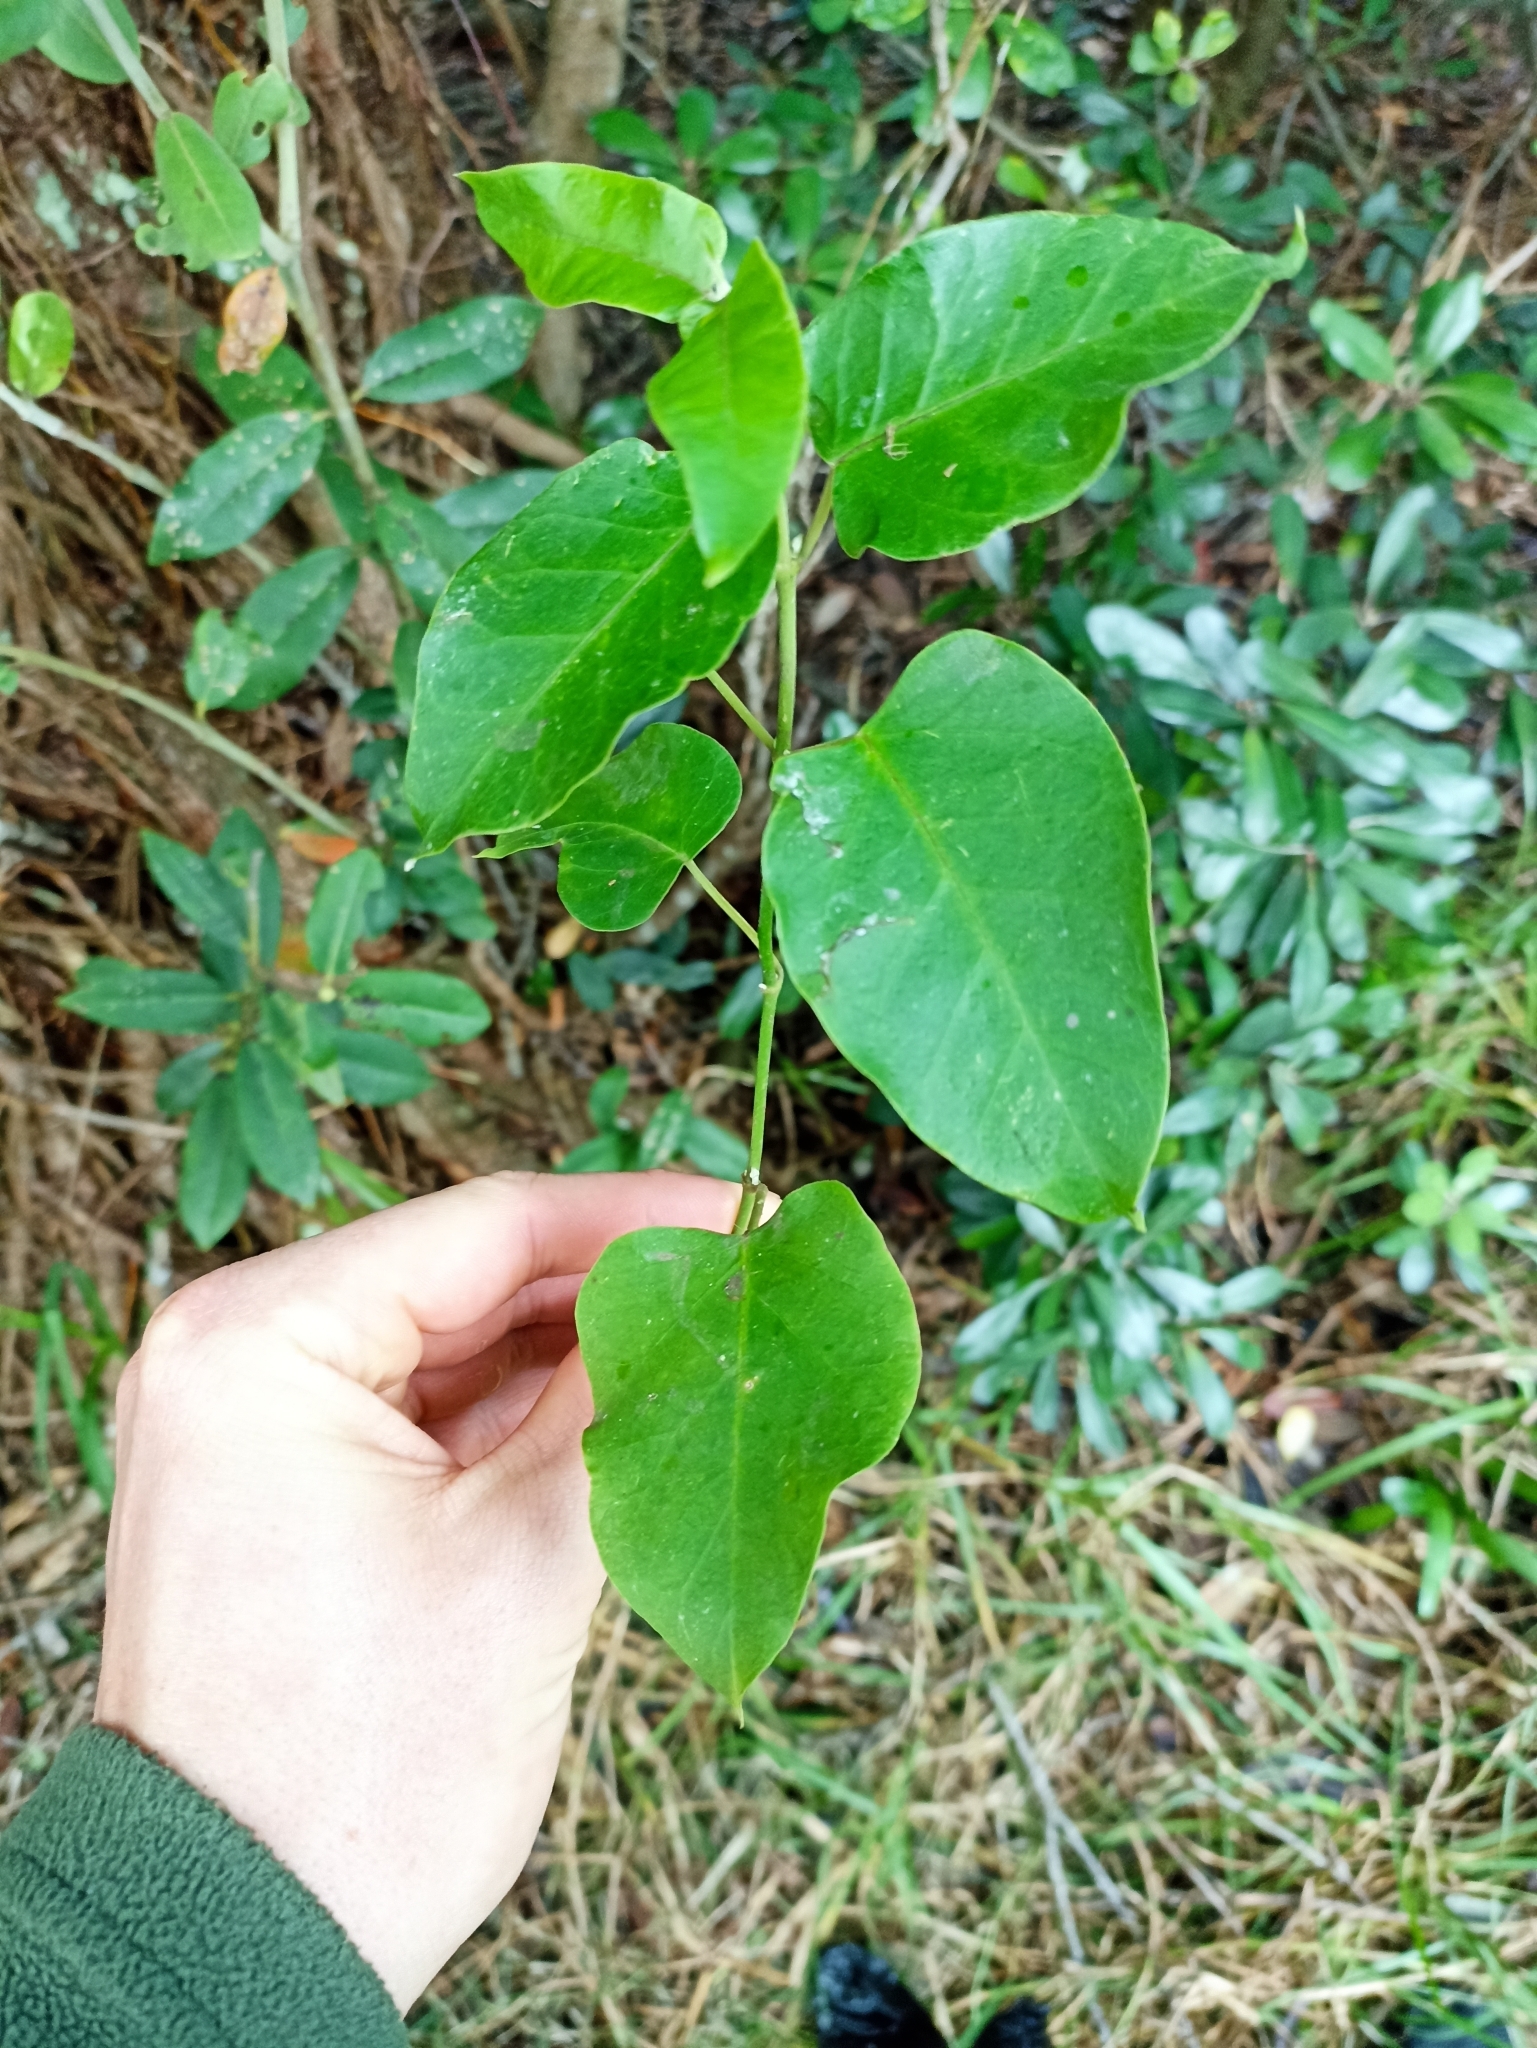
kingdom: Plantae
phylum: Tracheophyta
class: Magnoliopsida
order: Gentianales
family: Apocynaceae
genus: Araujia
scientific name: Araujia sericifera
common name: White bladderflower
